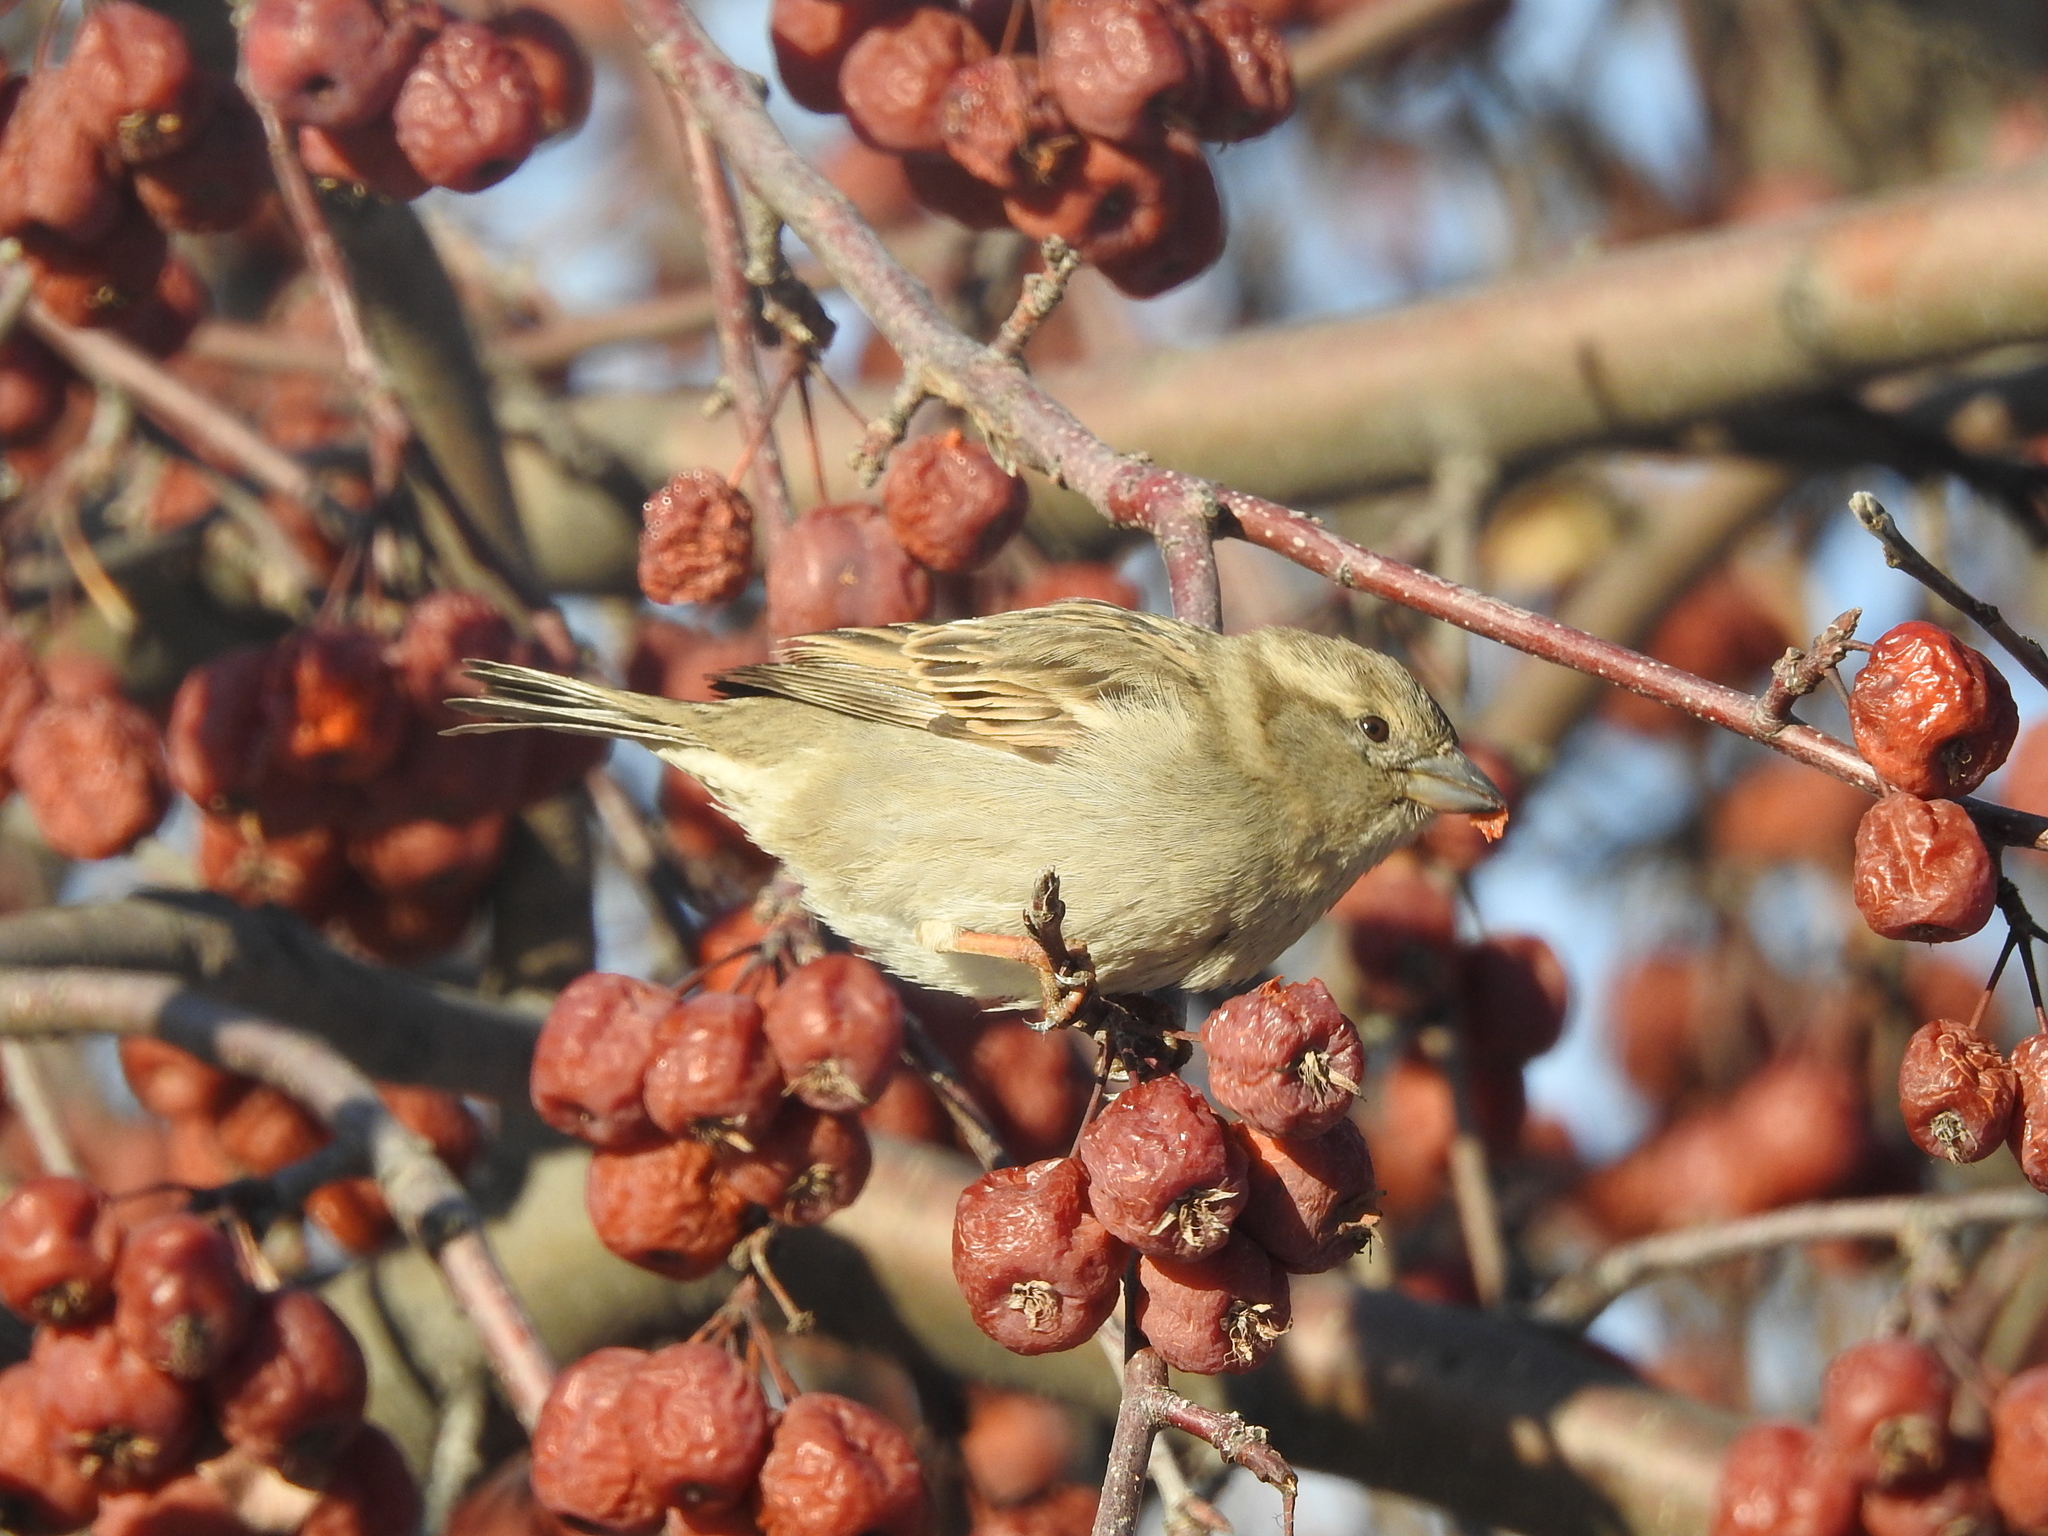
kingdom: Animalia
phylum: Chordata
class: Aves
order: Passeriformes
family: Passeridae
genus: Passer
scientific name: Passer domesticus
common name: House sparrow
